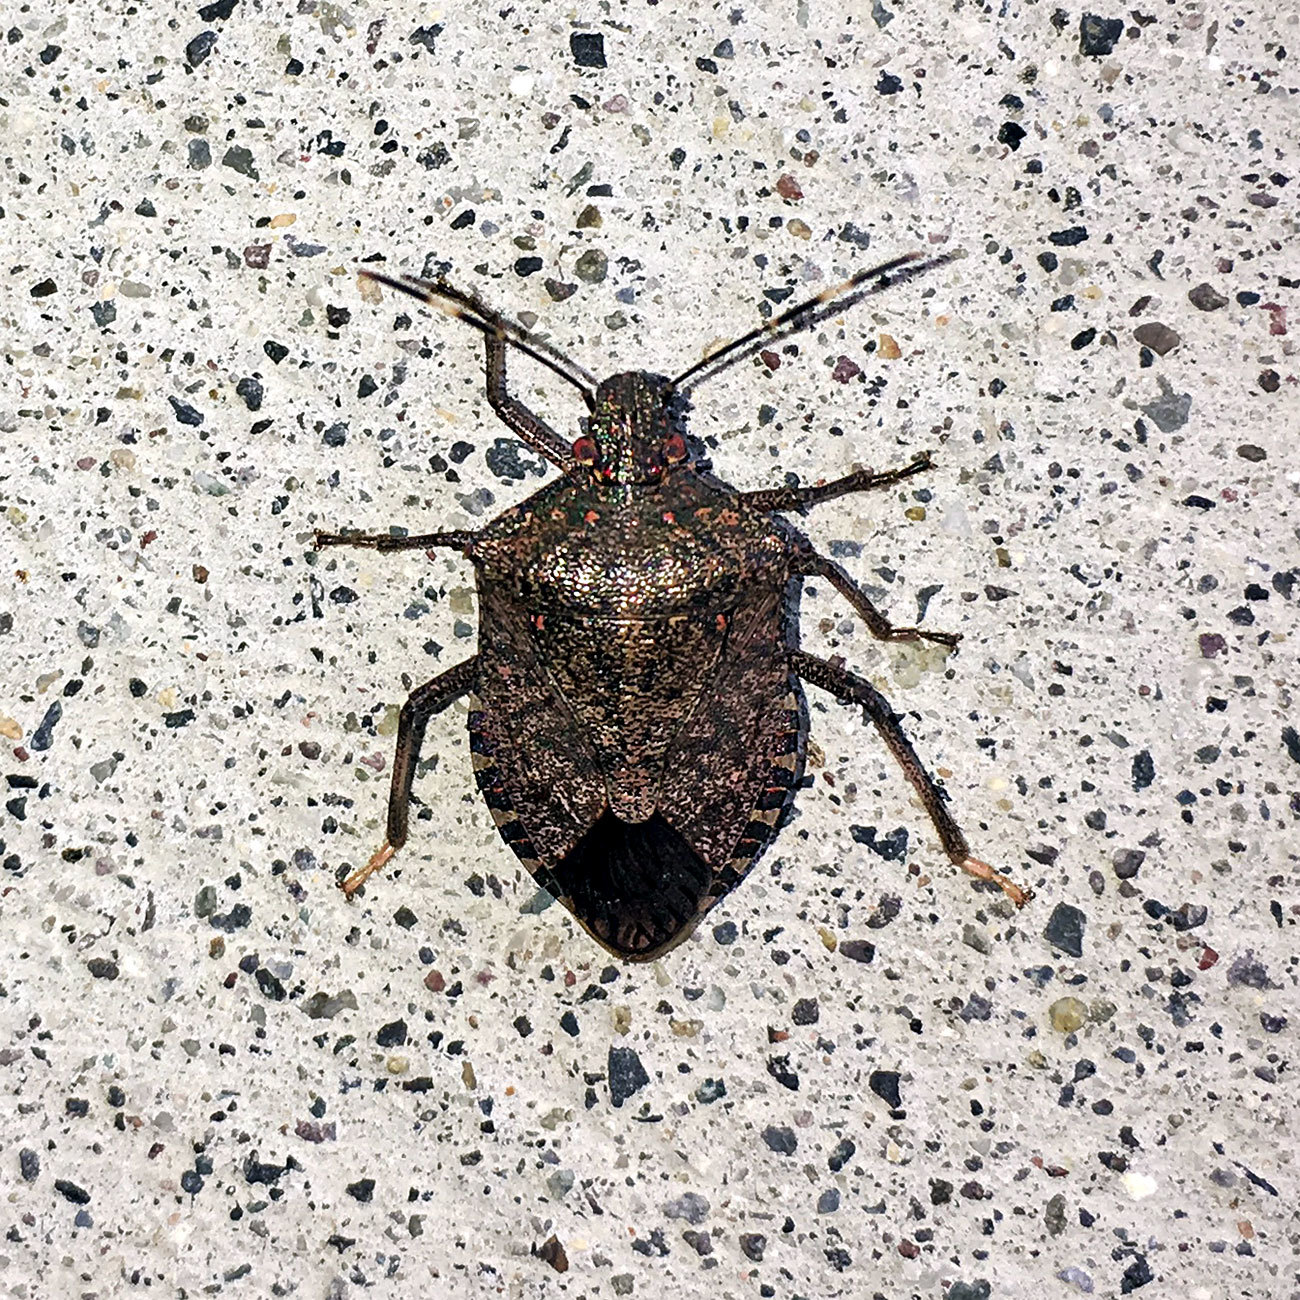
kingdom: Animalia
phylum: Arthropoda
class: Insecta
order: Hemiptera
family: Pentatomidae
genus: Halyomorpha
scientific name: Halyomorpha halys
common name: Brown marmorated stink bug
